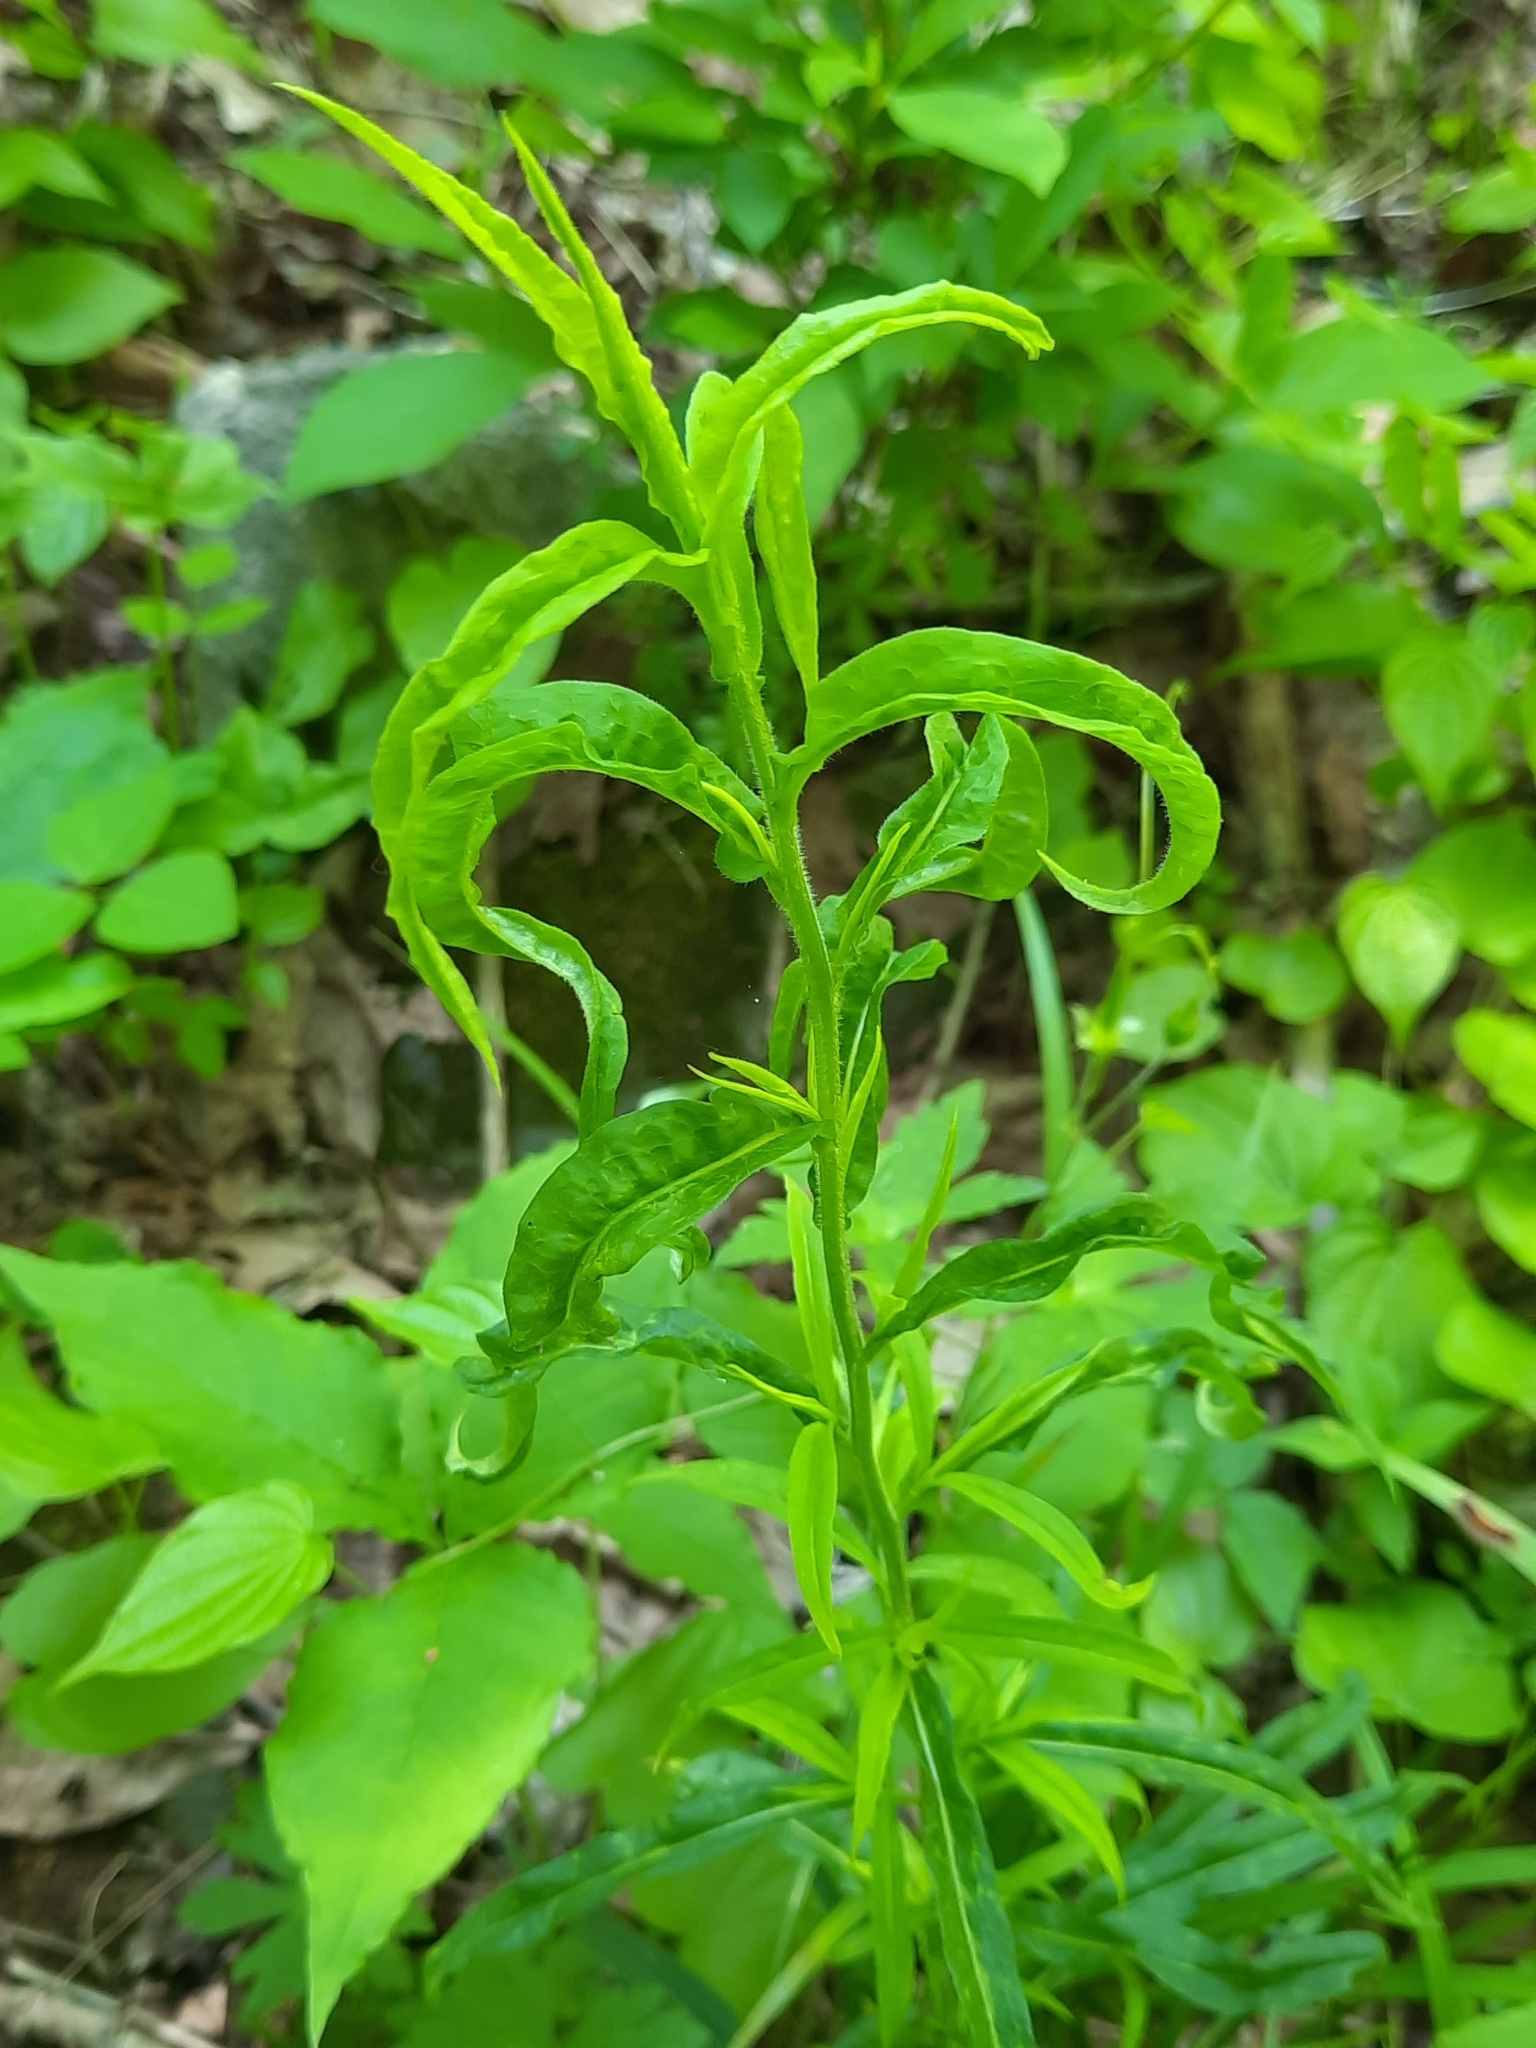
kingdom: Plantae
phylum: Tracheophyta
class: Magnoliopsida
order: Asterales
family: Campanulaceae
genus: Lobelia
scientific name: Lobelia inflata
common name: Indian tobacco
